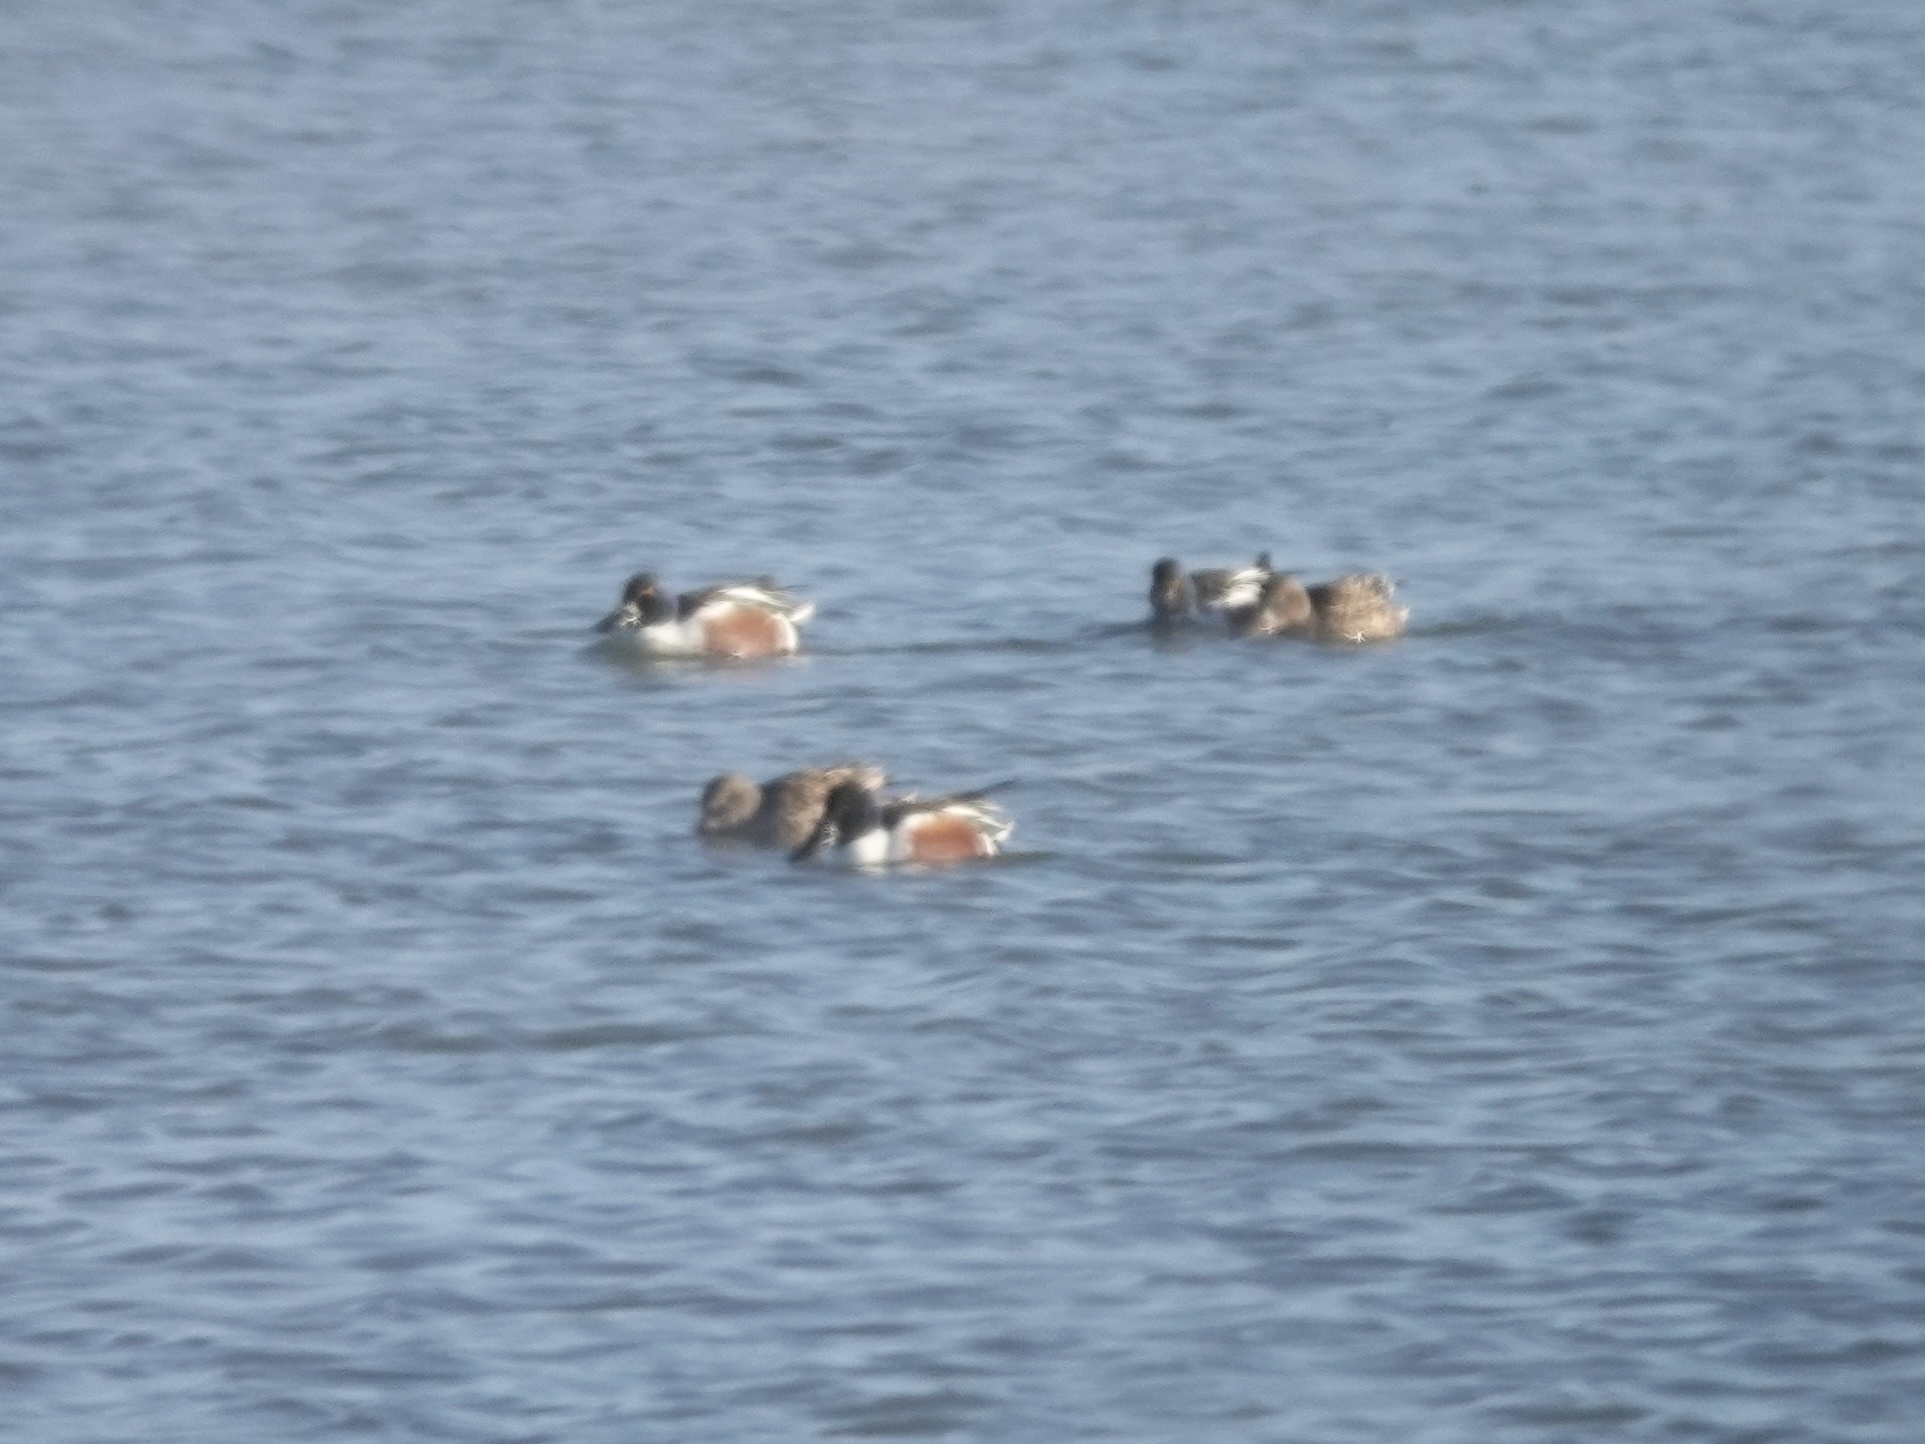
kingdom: Animalia
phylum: Chordata
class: Aves
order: Anseriformes
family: Anatidae
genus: Spatula
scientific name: Spatula clypeata
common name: Northern shoveler
